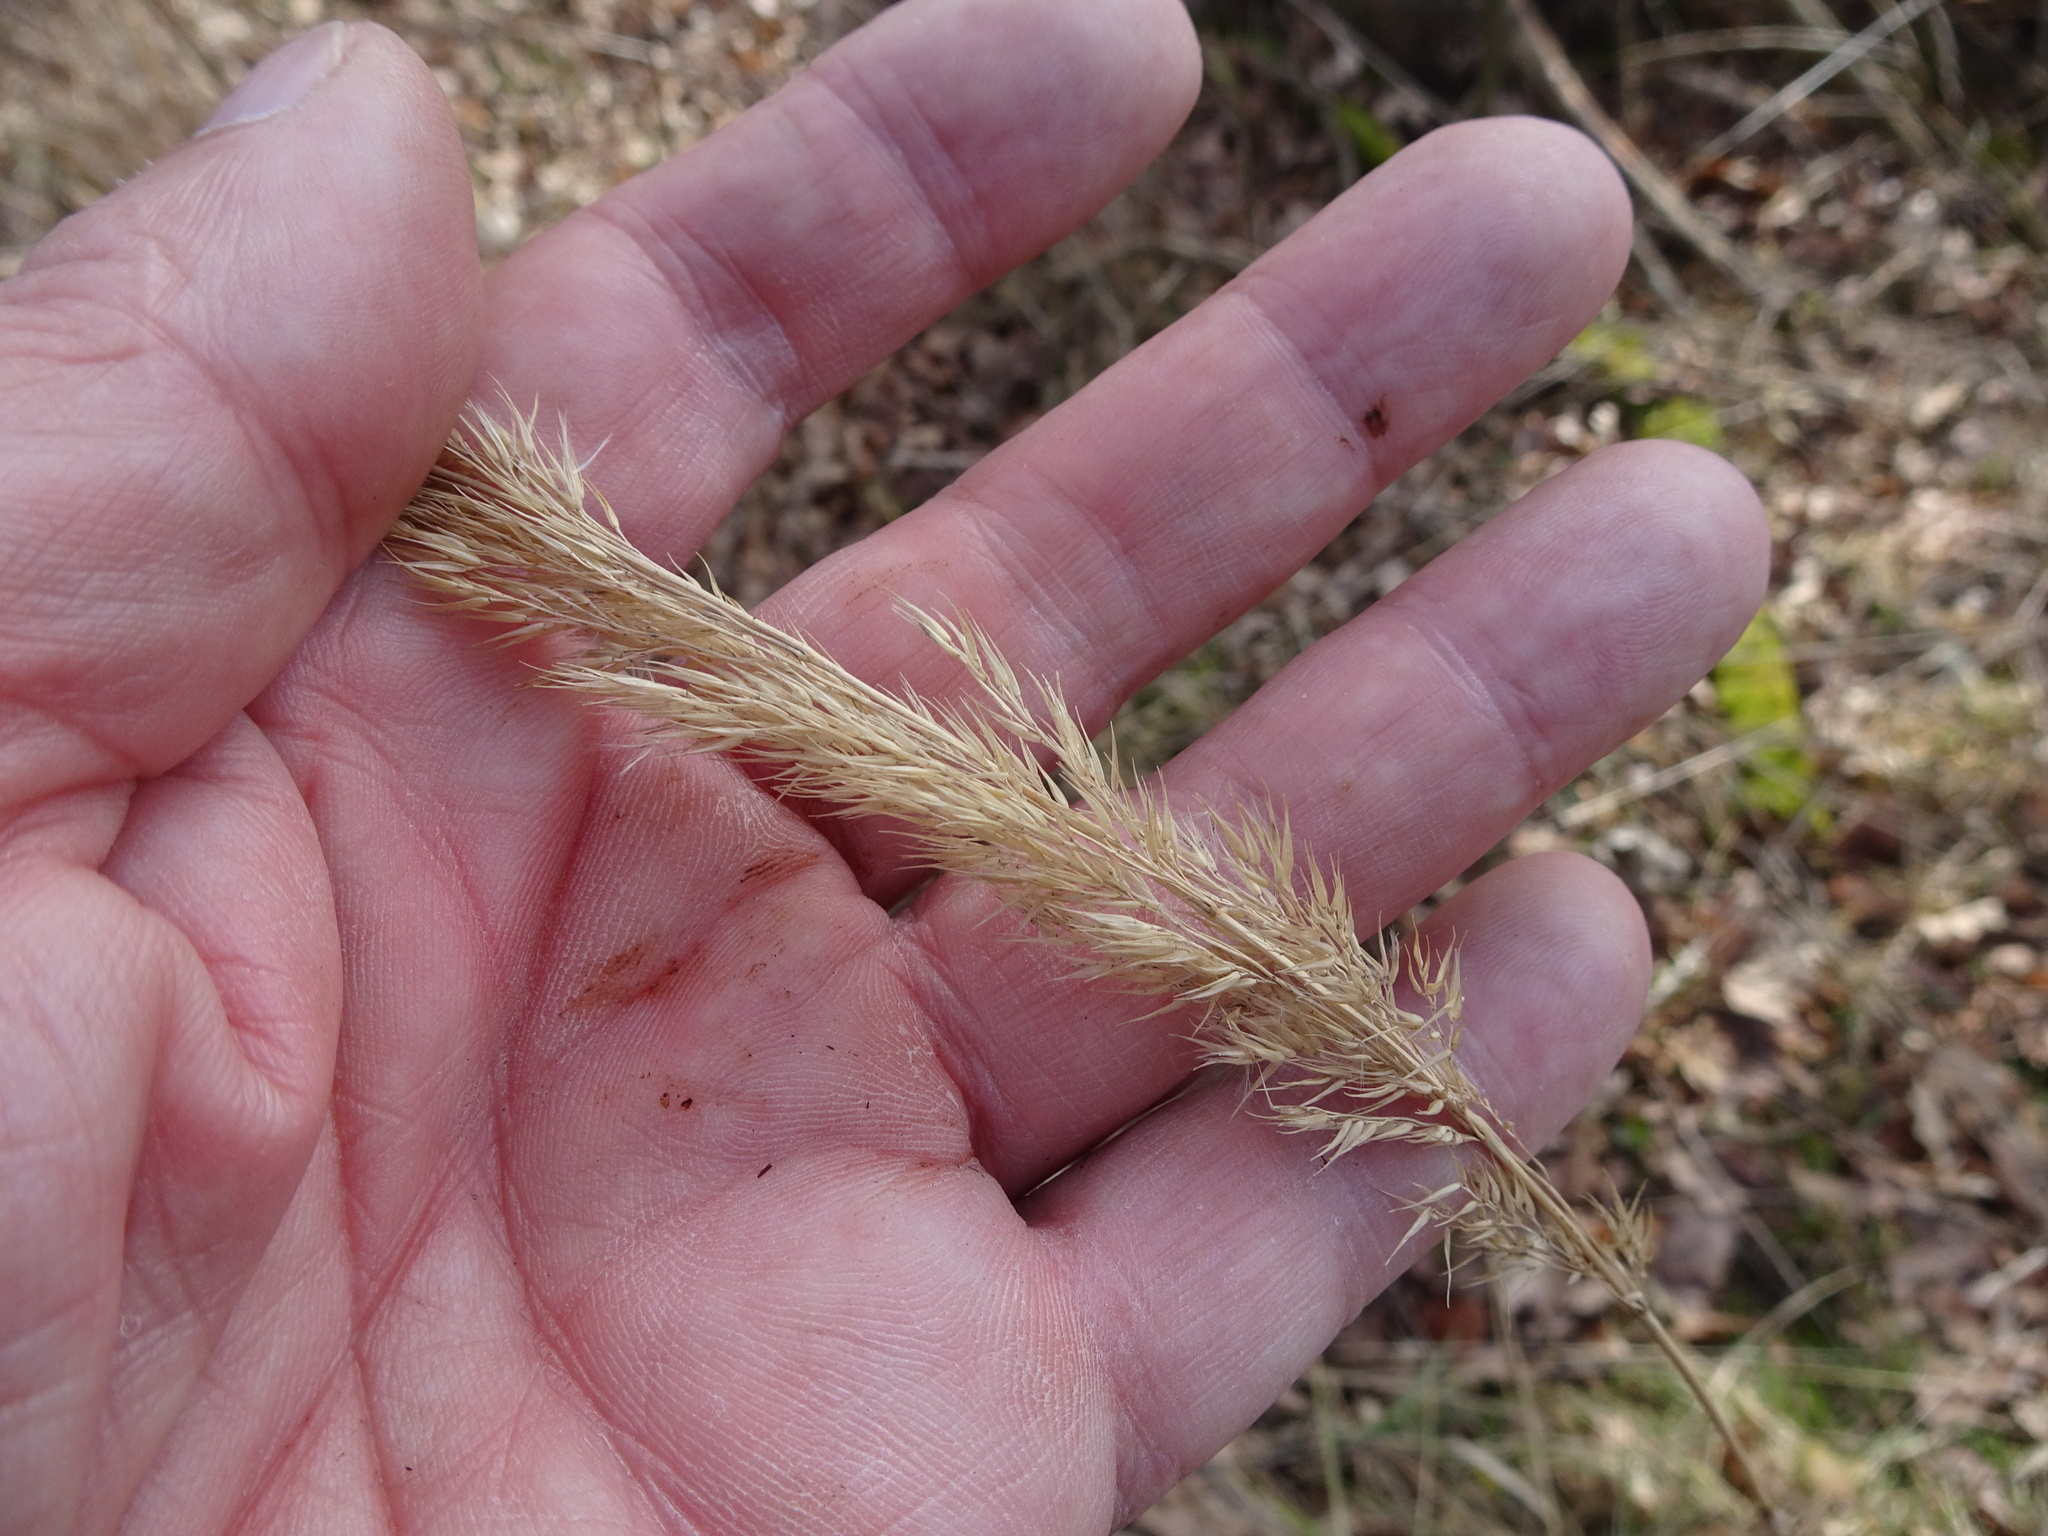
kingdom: Plantae
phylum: Tracheophyta
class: Liliopsida
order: Poales
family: Poaceae
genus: Calamagrostis
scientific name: Calamagrostis epigejos
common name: Wood small-reed
